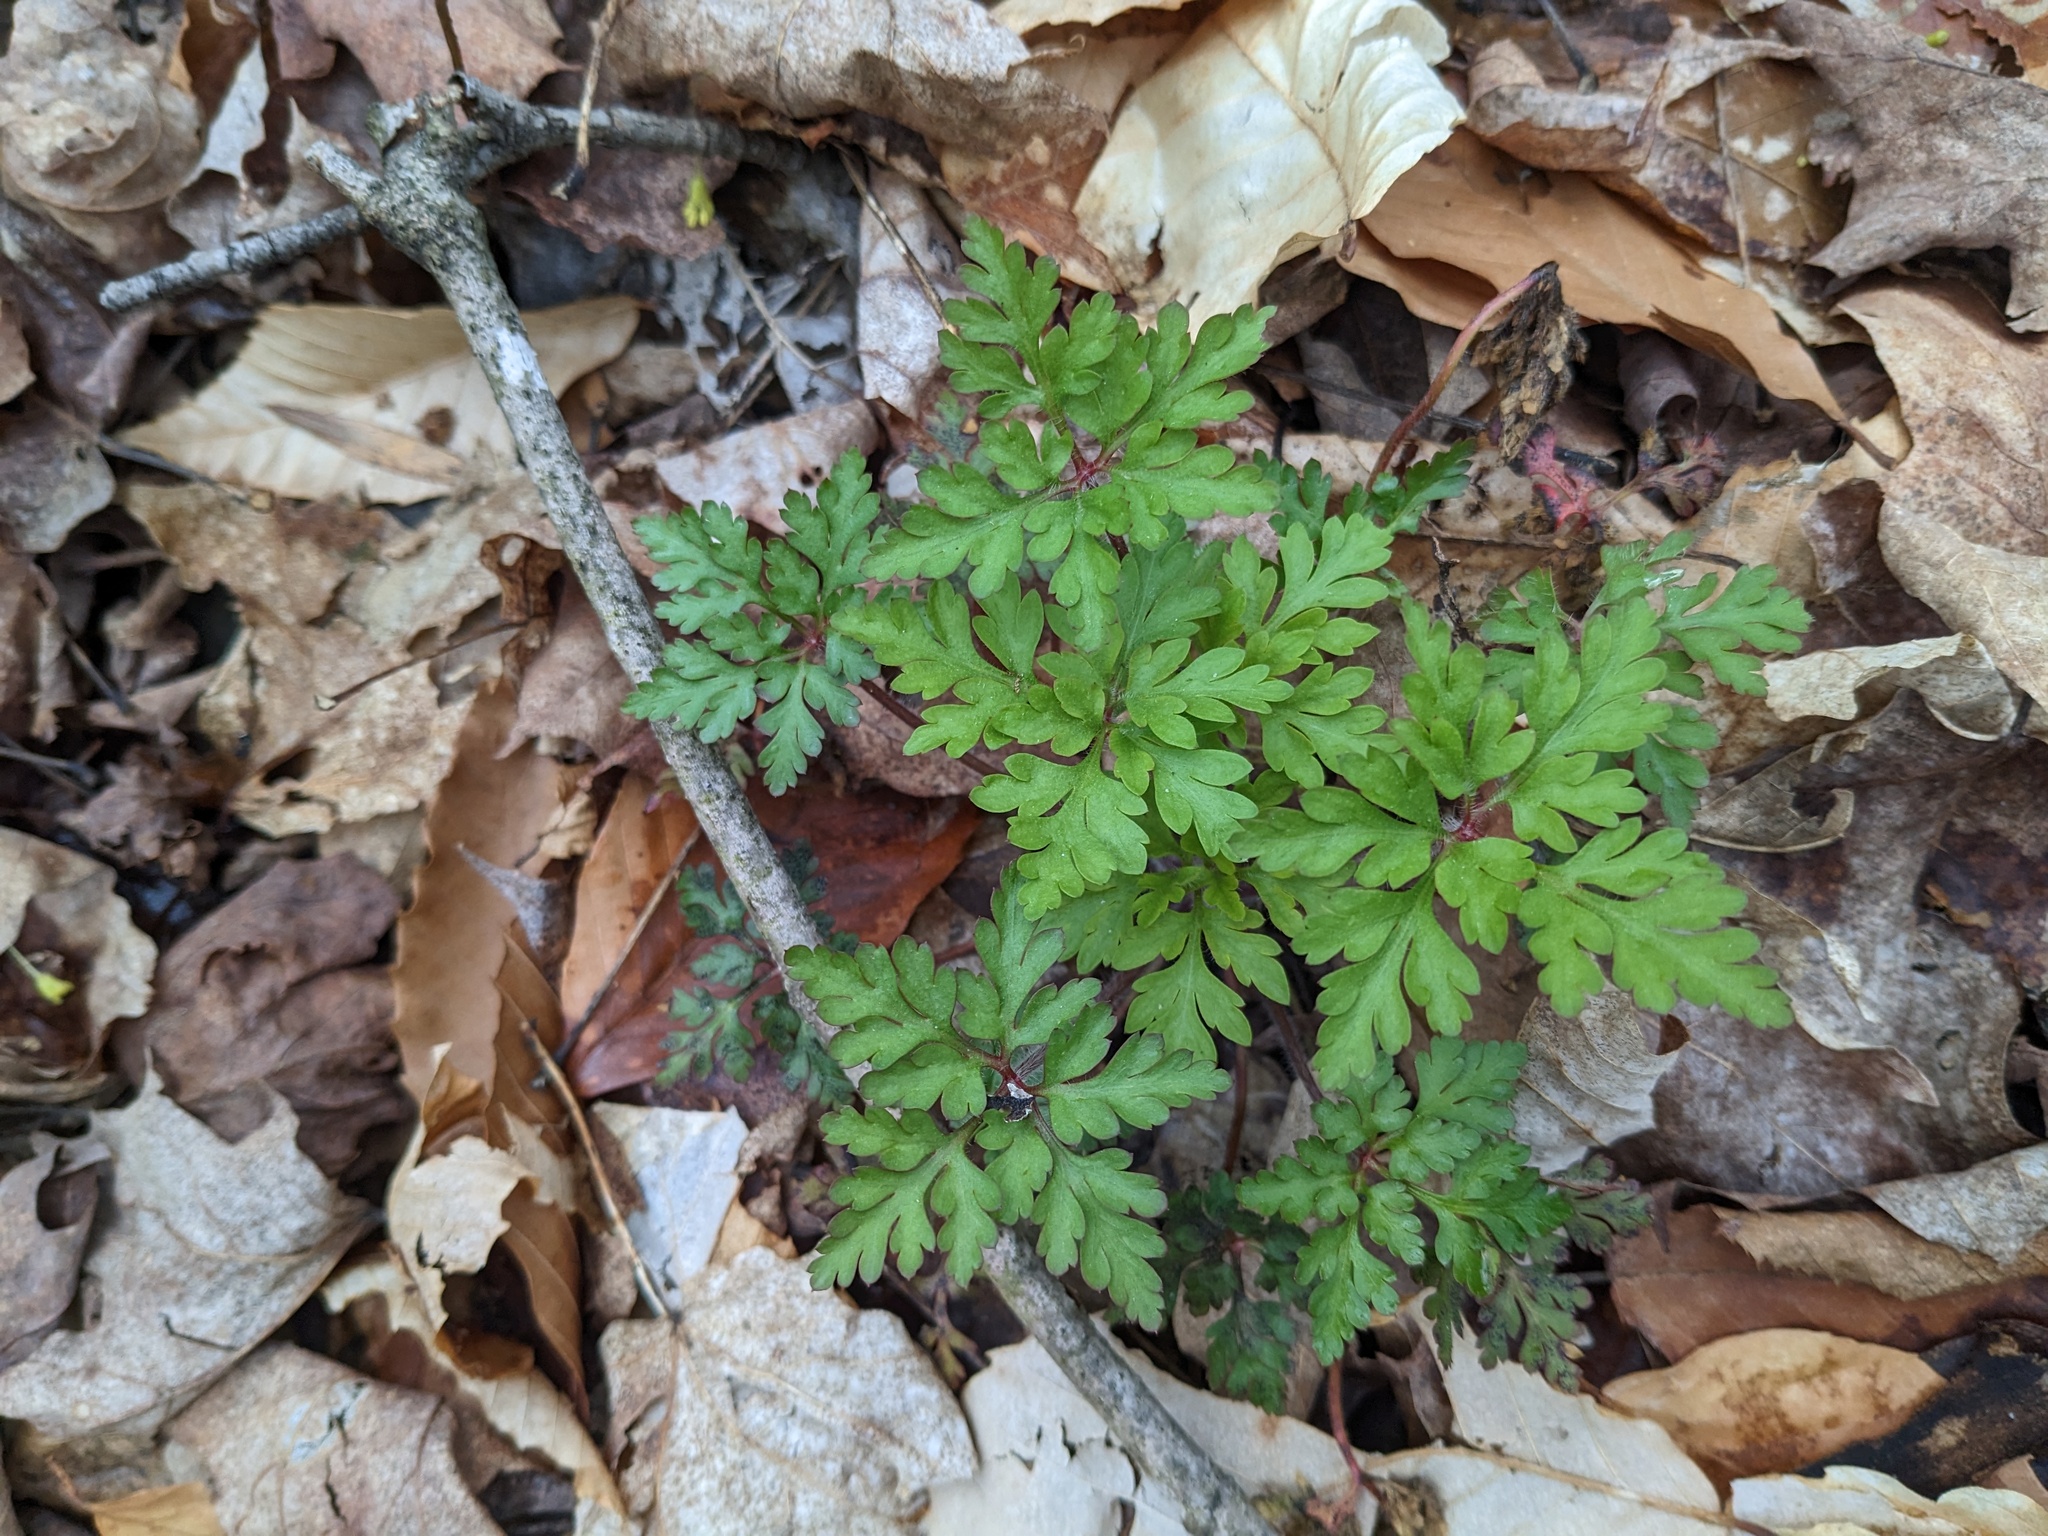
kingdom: Plantae
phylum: Tracheophyta
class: Magnoliopsida
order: Geraniales
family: Geraniaceae
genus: Geranium
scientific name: Geranium robertianum
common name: Herb-robert
